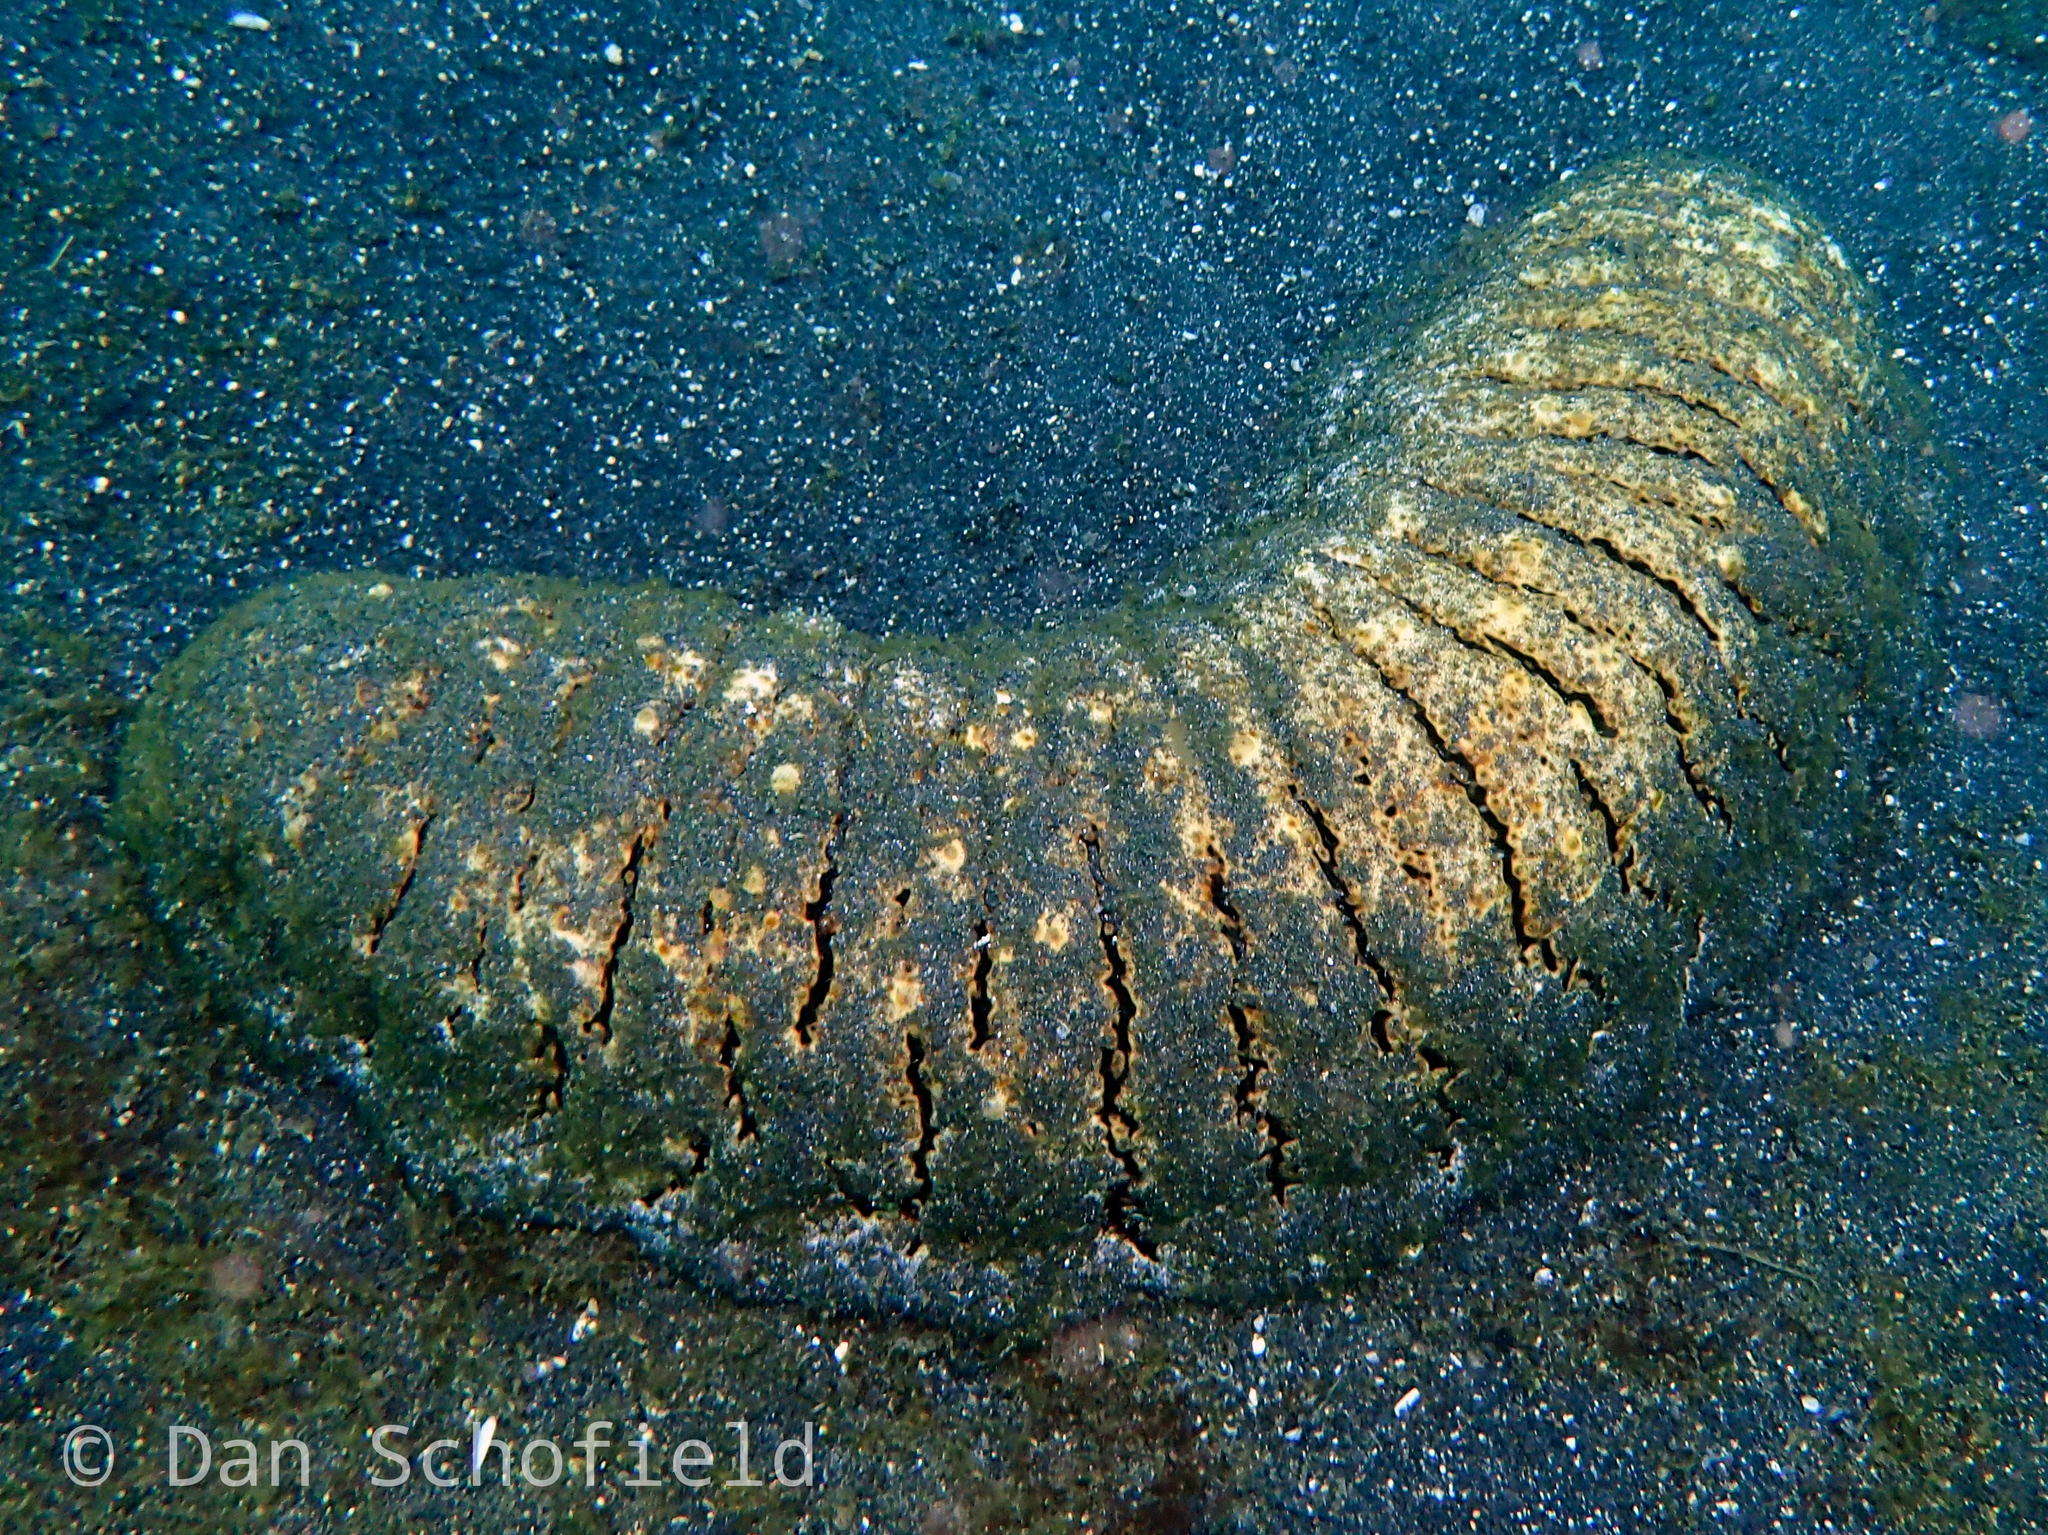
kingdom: Animalia
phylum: Echinodermata
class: Holothuroidea
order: Holothuriida
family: Holothuriidae
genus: Holothuria
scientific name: Holothuria scabra
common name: Golden sandfish
